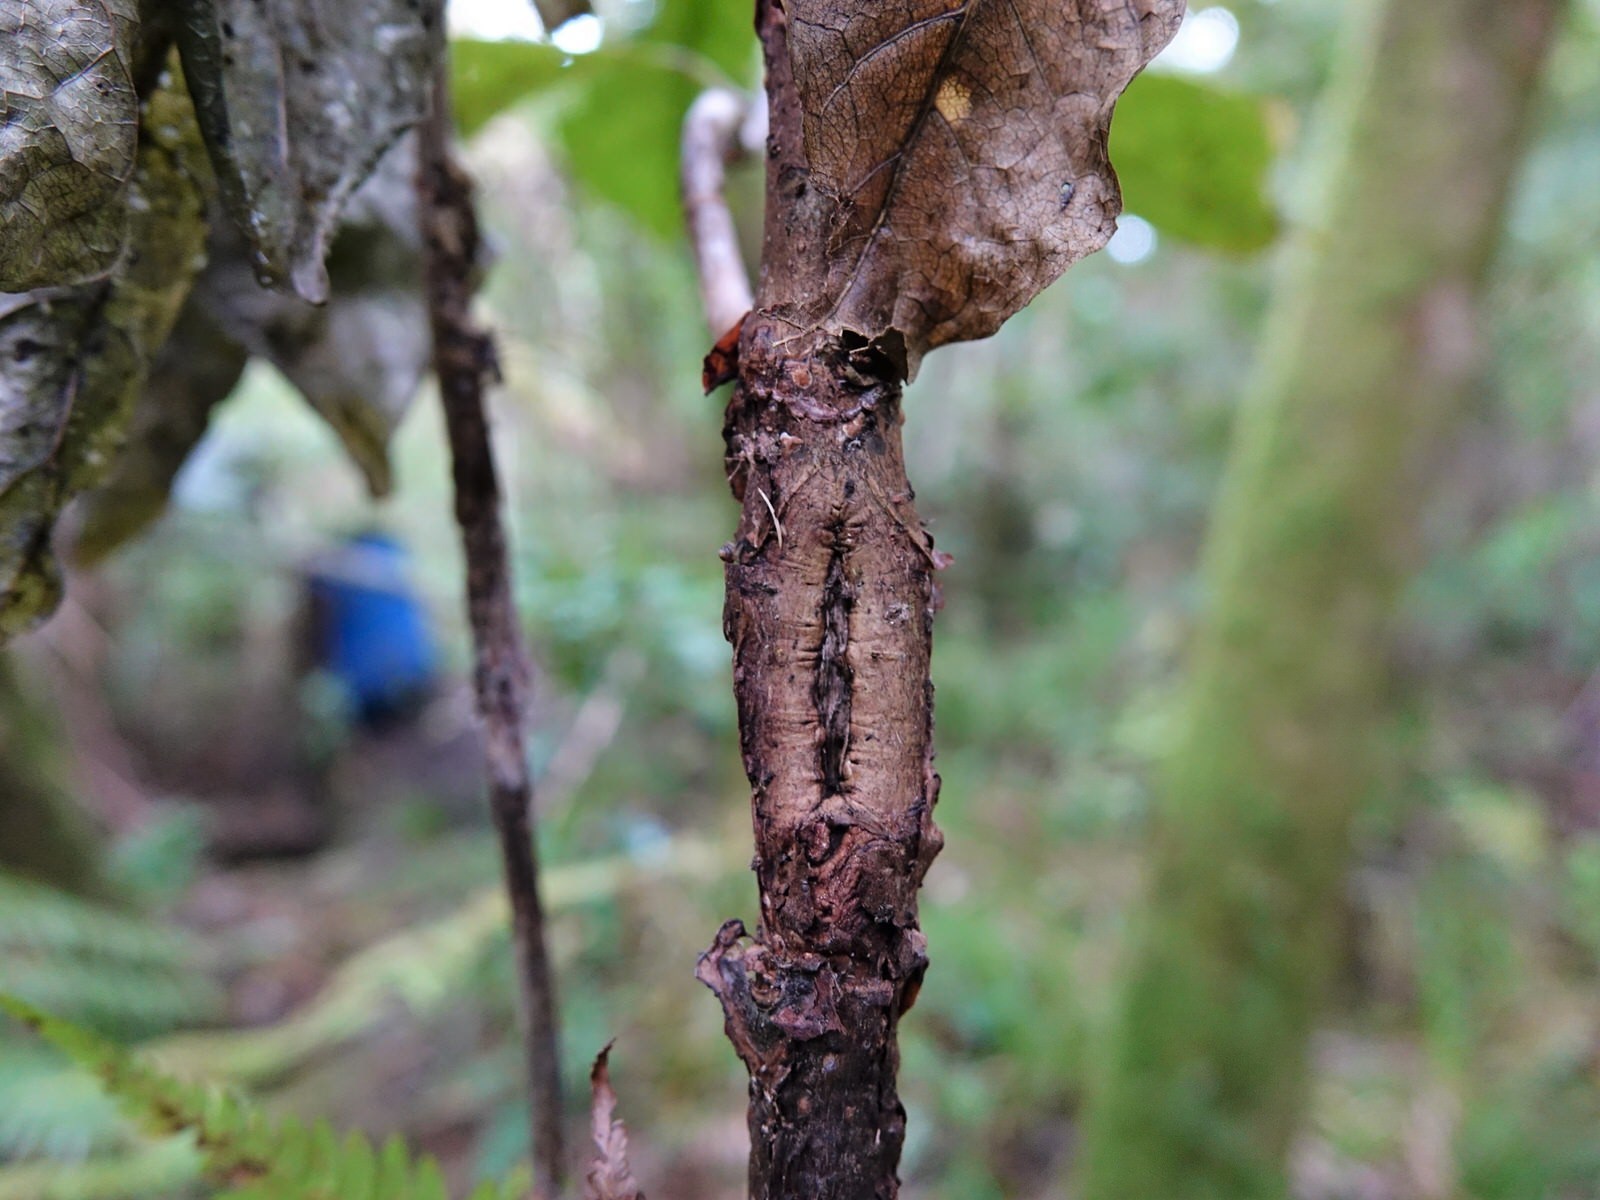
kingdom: Plantae
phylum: Tracheophyta
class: Magnoliopsida
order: Gentianales
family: Rubiaceae
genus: Coprosma
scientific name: Coprosma autumnalis
